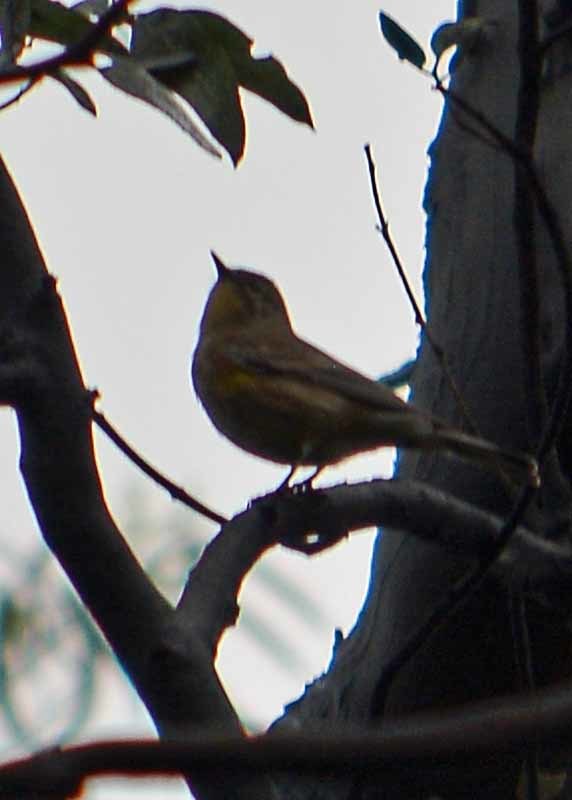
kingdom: Animalia
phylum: Chordata
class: Aves
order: Passeriformes
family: Parulidae
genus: Setophaga
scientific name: Setophaga coronata
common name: Myrtle warbler
